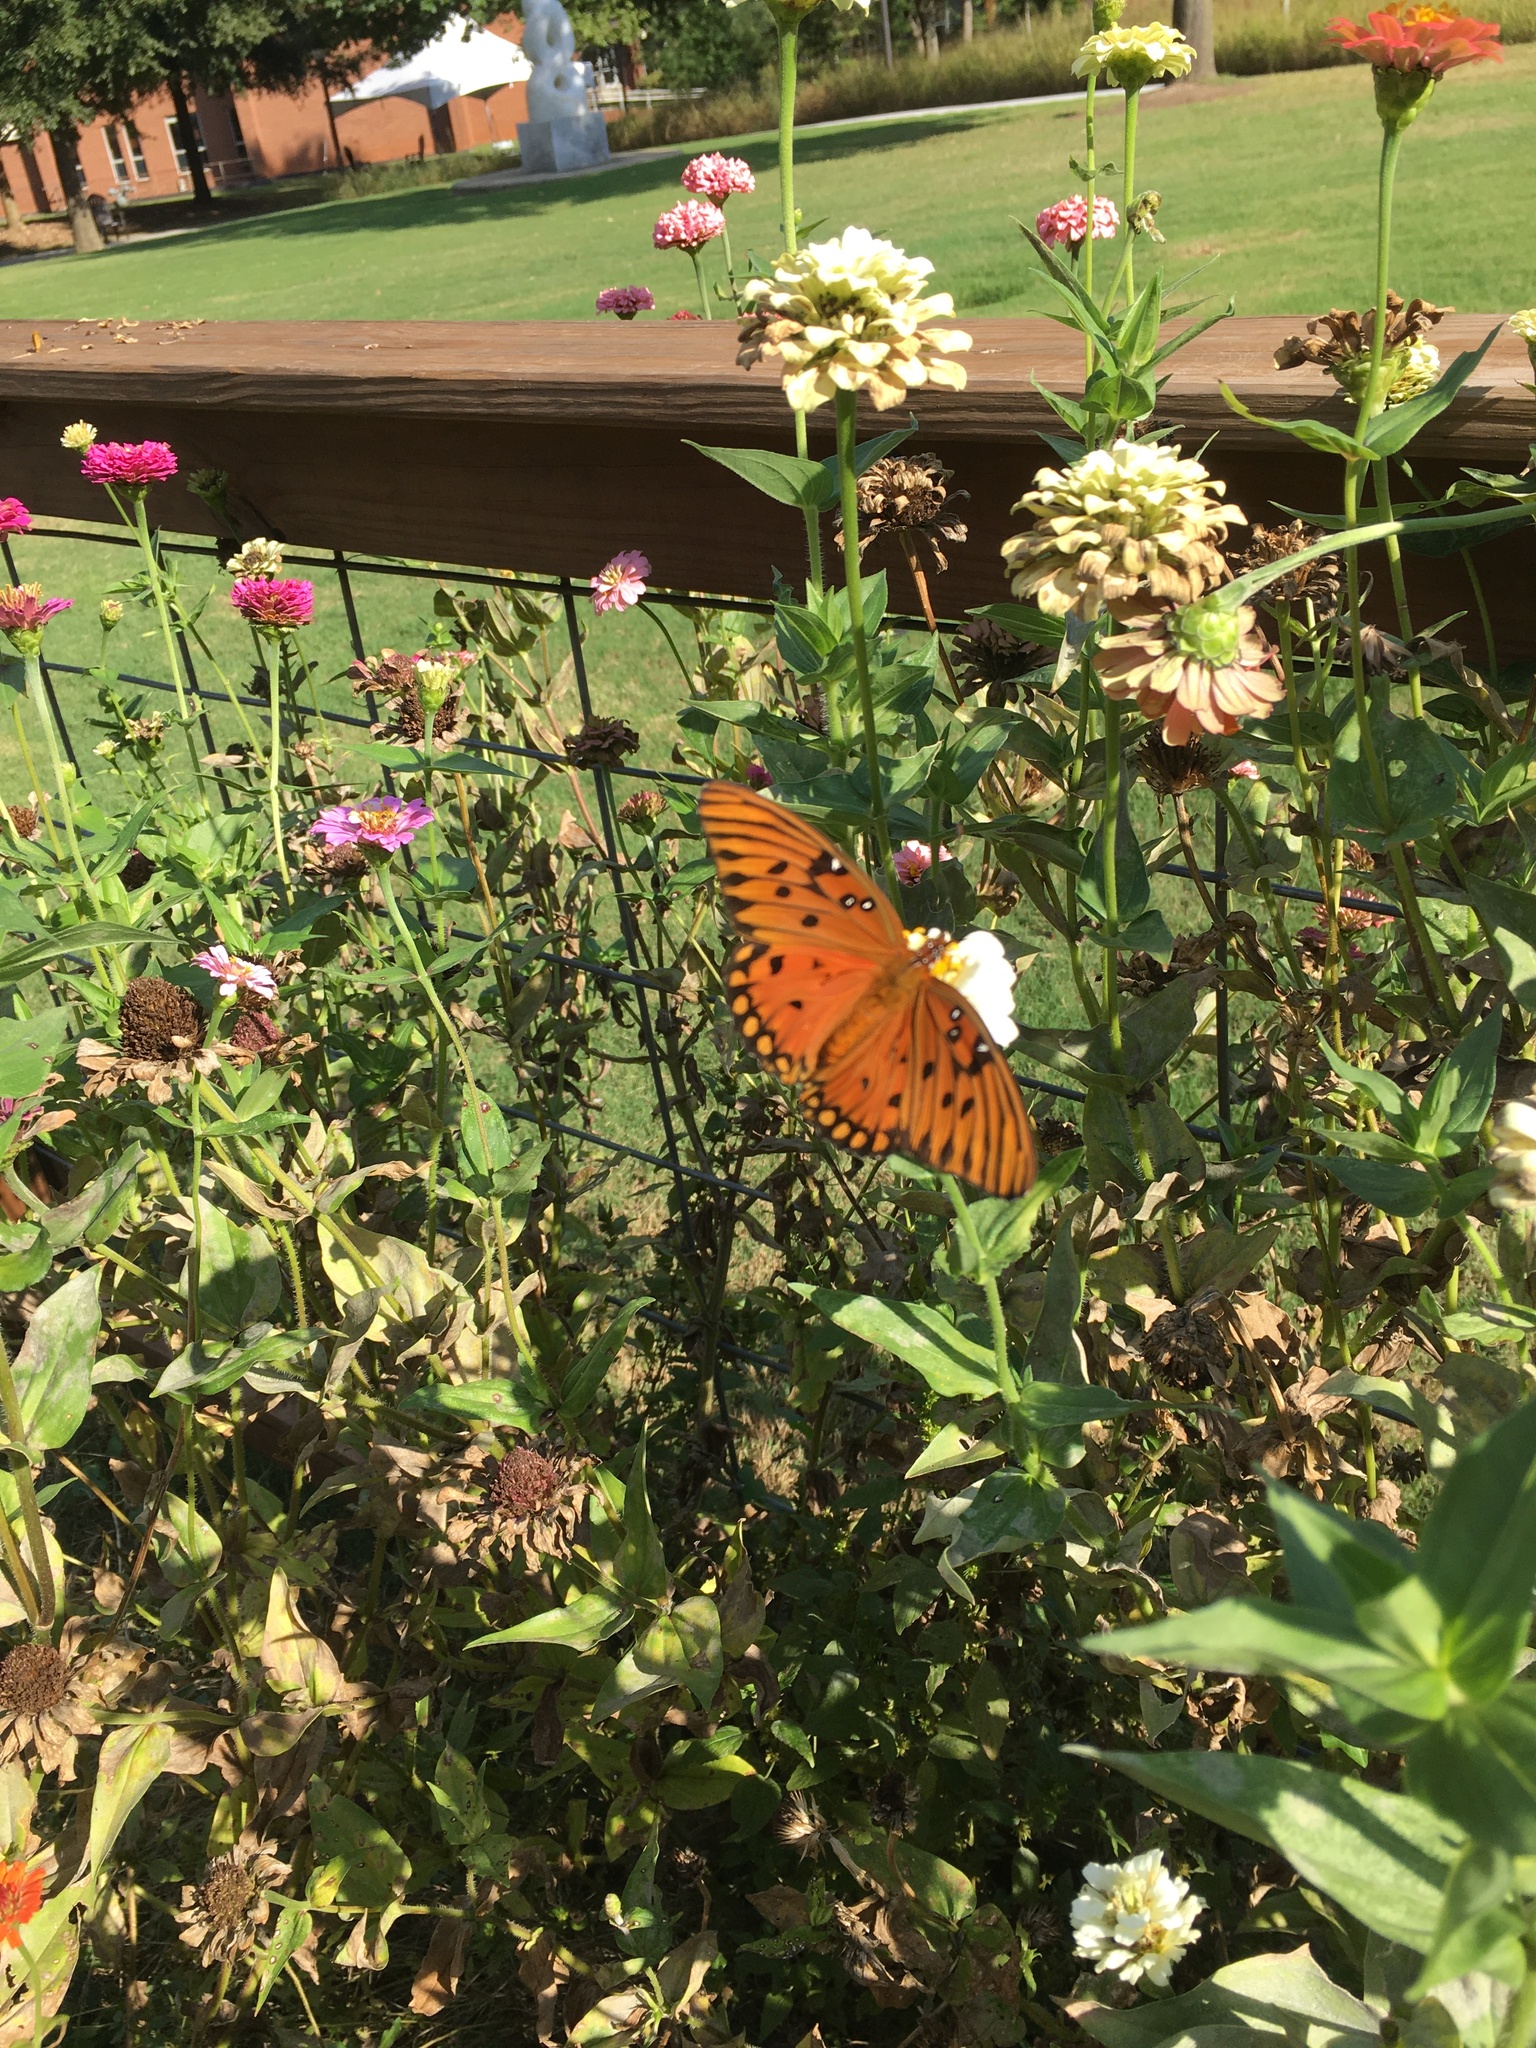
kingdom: Animalia
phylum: Arthropoda
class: Insecta
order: Lepidoptera
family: Nymphalidae
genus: Dione
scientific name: Dione vanillae
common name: Gulf fritillary
